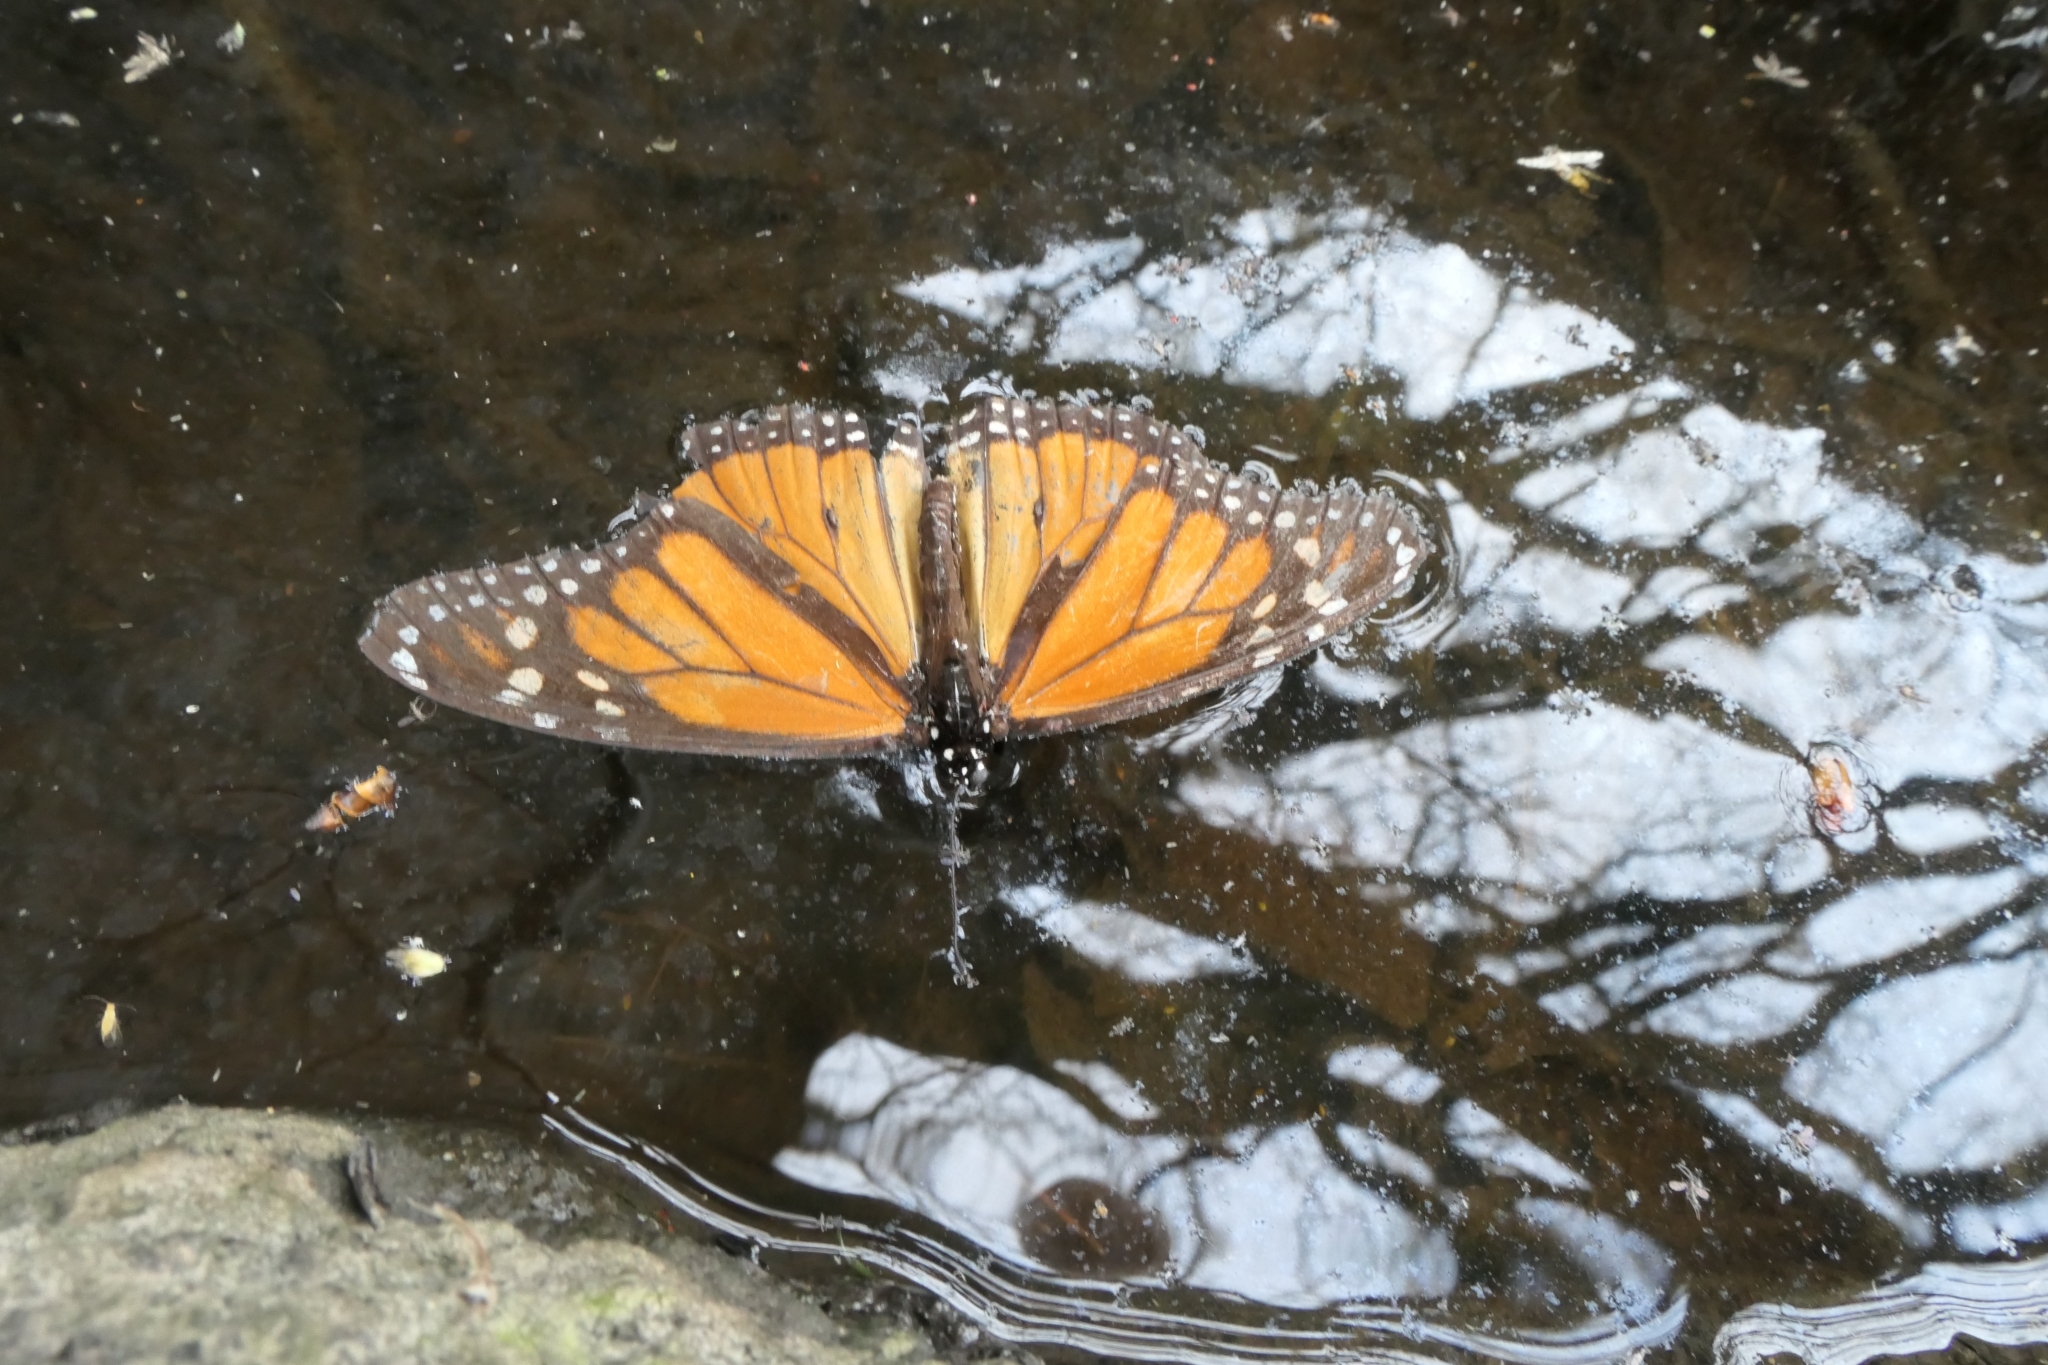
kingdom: Animalia
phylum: Arthropoda
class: Insecta
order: Lepidoptera
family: Nymphalidae
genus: Danaus
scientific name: Danaus plexippus
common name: Monarch
